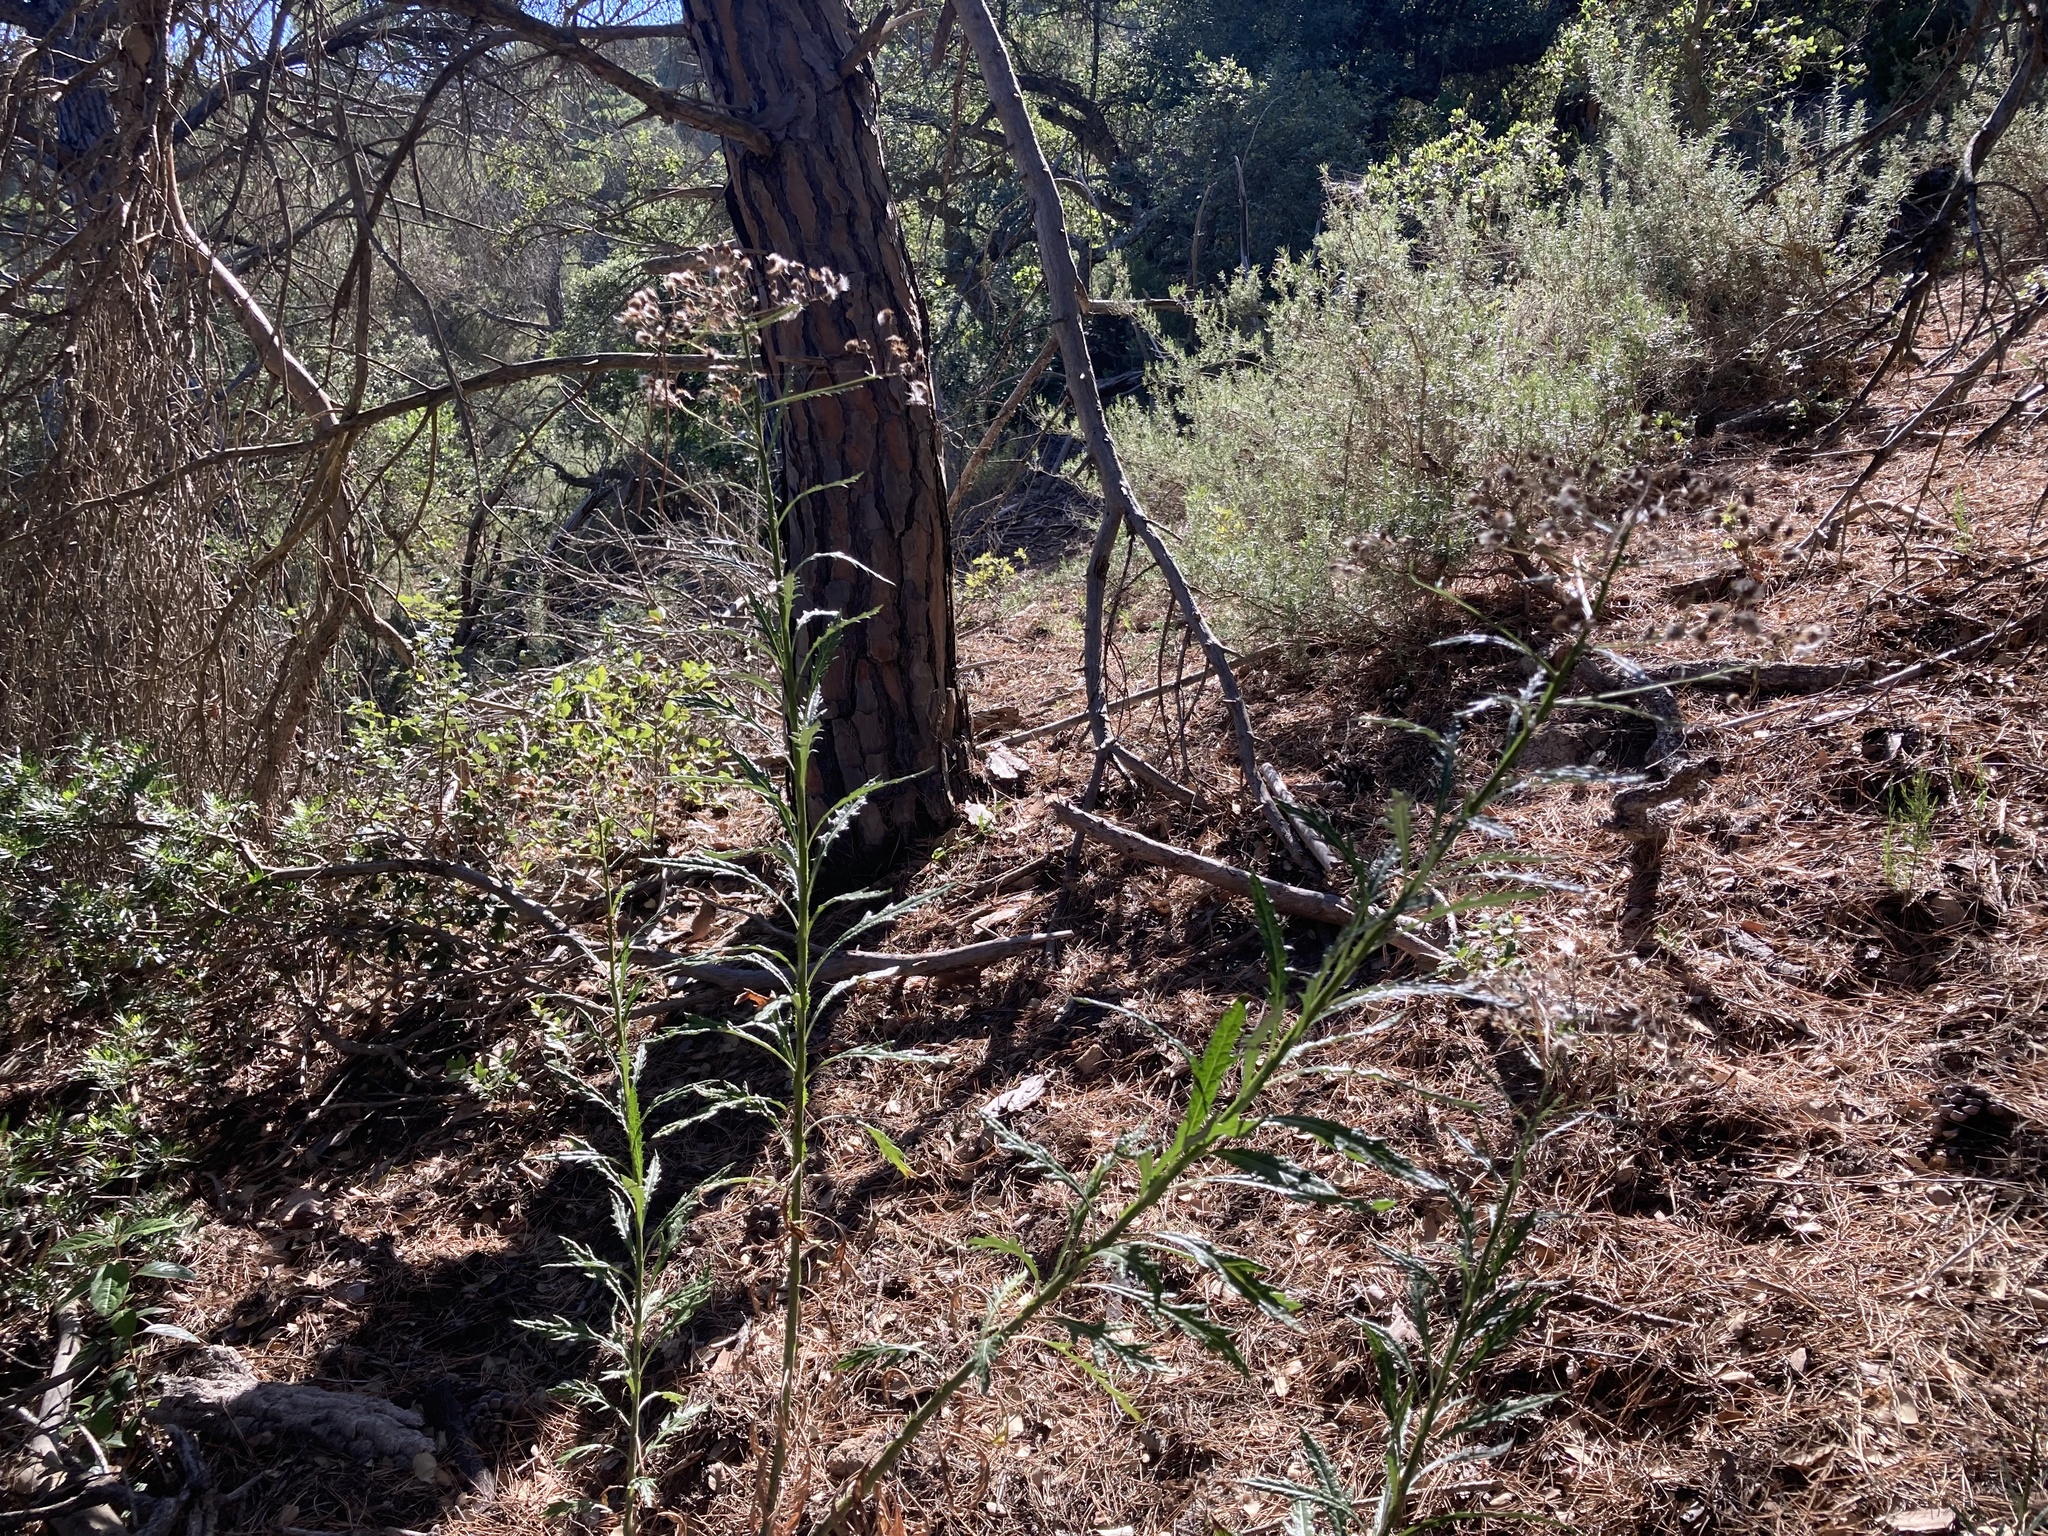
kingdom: Plantae
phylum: Tracheophyta
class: Magnoliopsida
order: Asterales
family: Asteraceae
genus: Senecio
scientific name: Senecio pterophorus
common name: Shoddy ragwort
